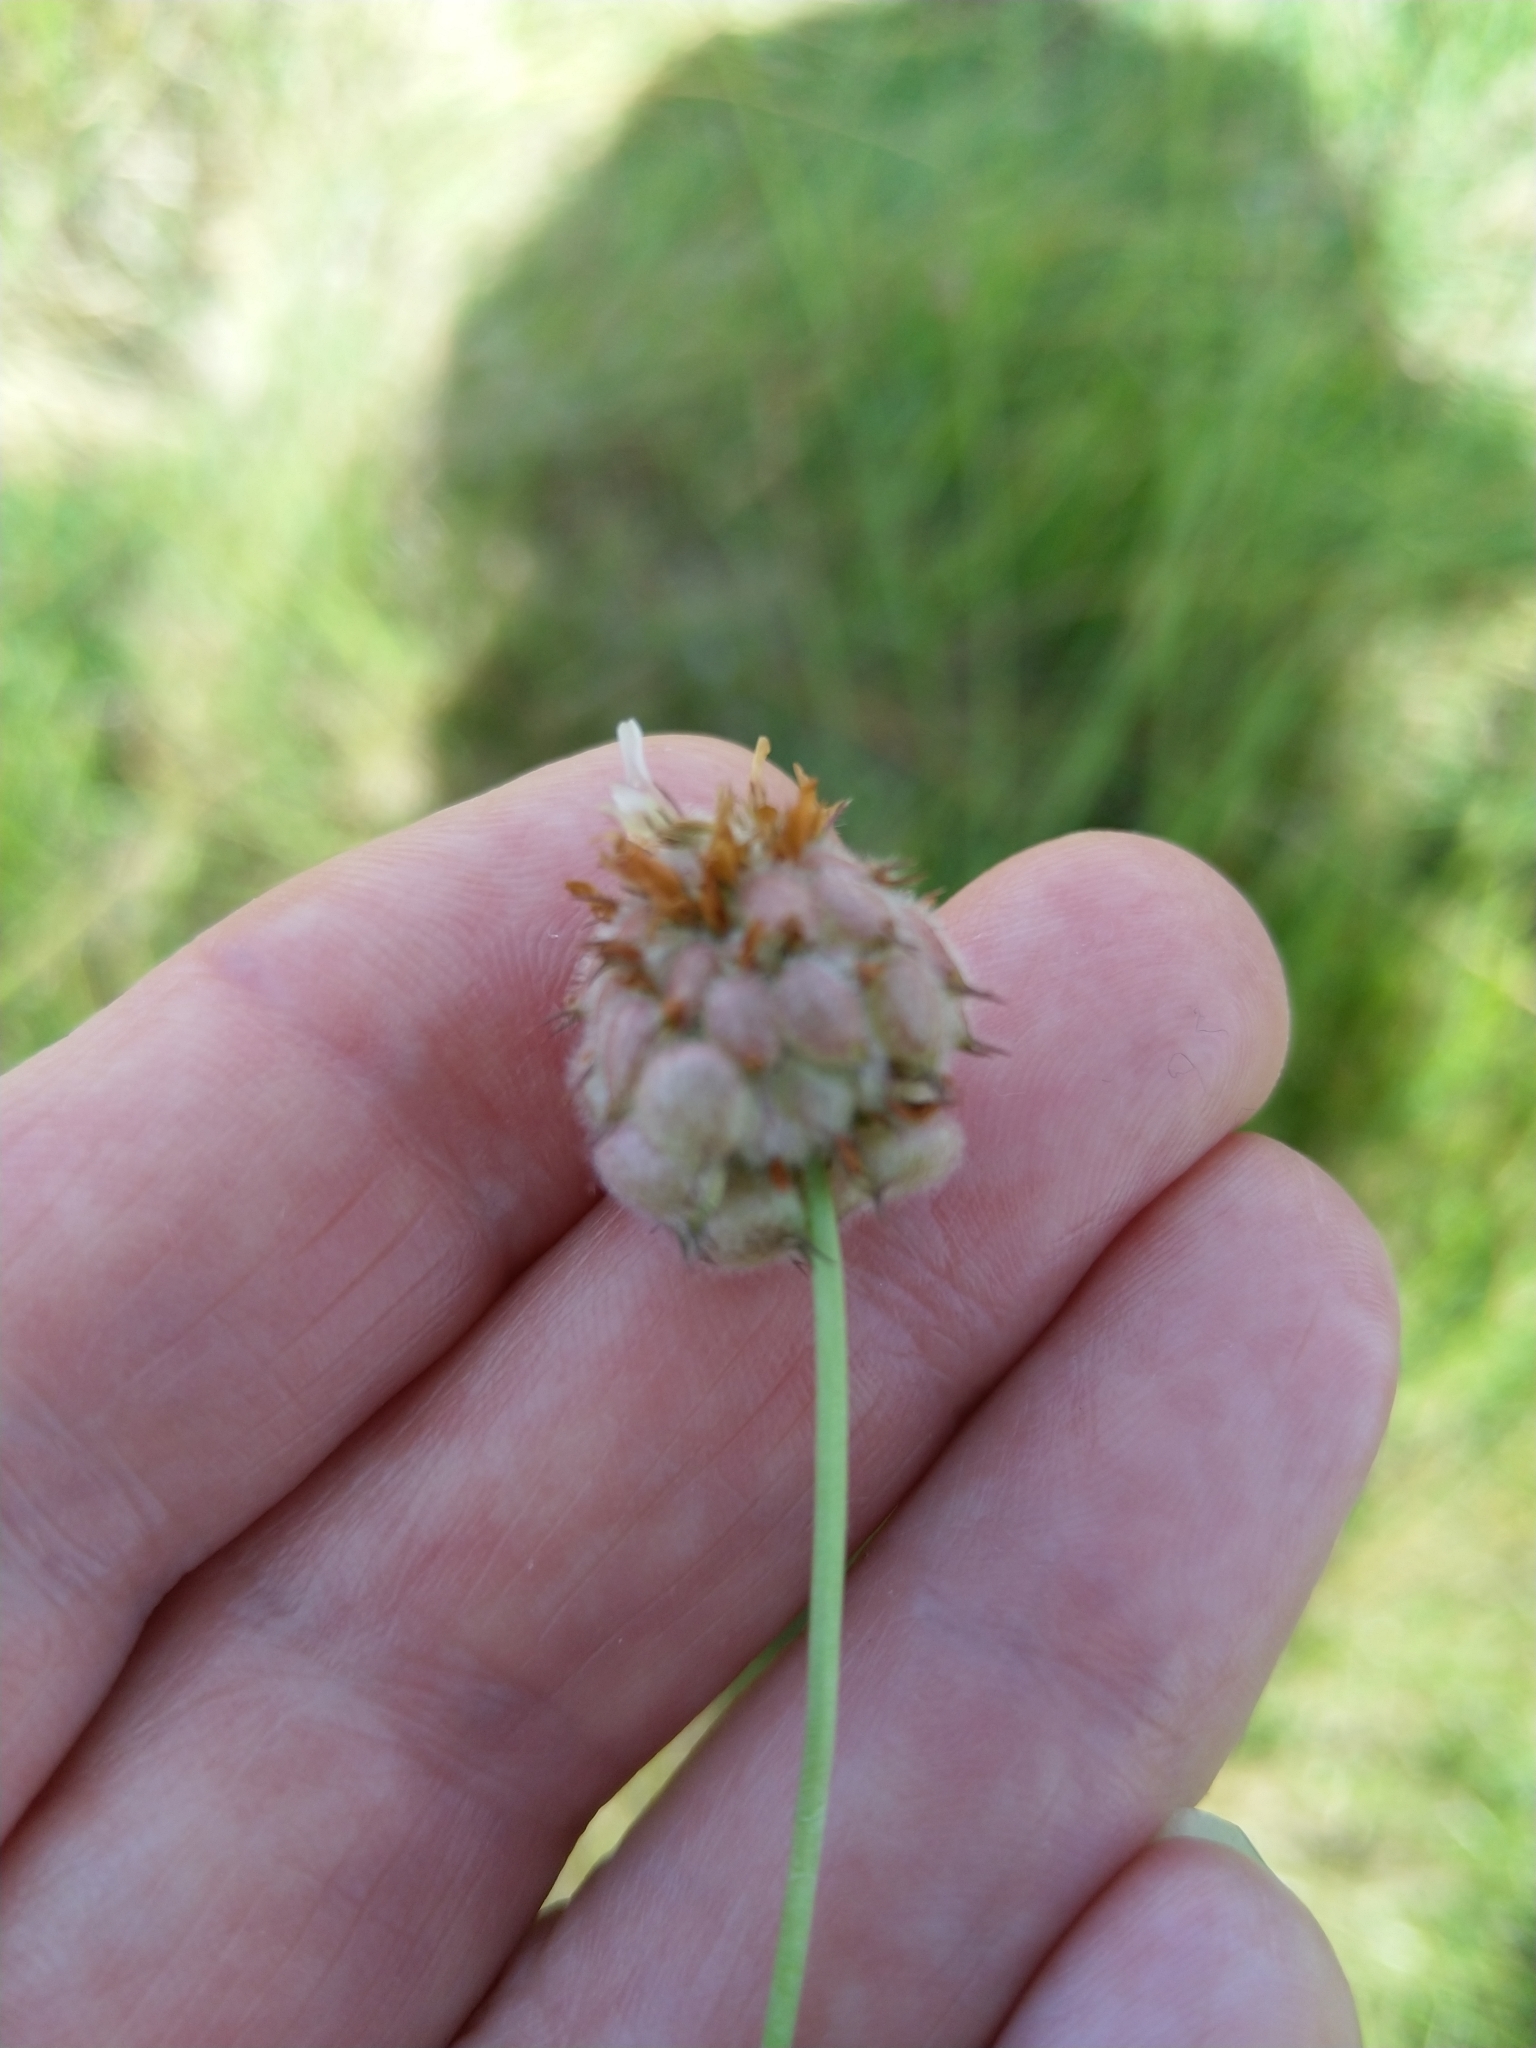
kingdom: Plantae
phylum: Tracheophyta
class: Magnoliopsida
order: Fabales
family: Fabaceae
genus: Trifolium
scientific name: Trifolium fragiferum
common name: Strawberry clover
